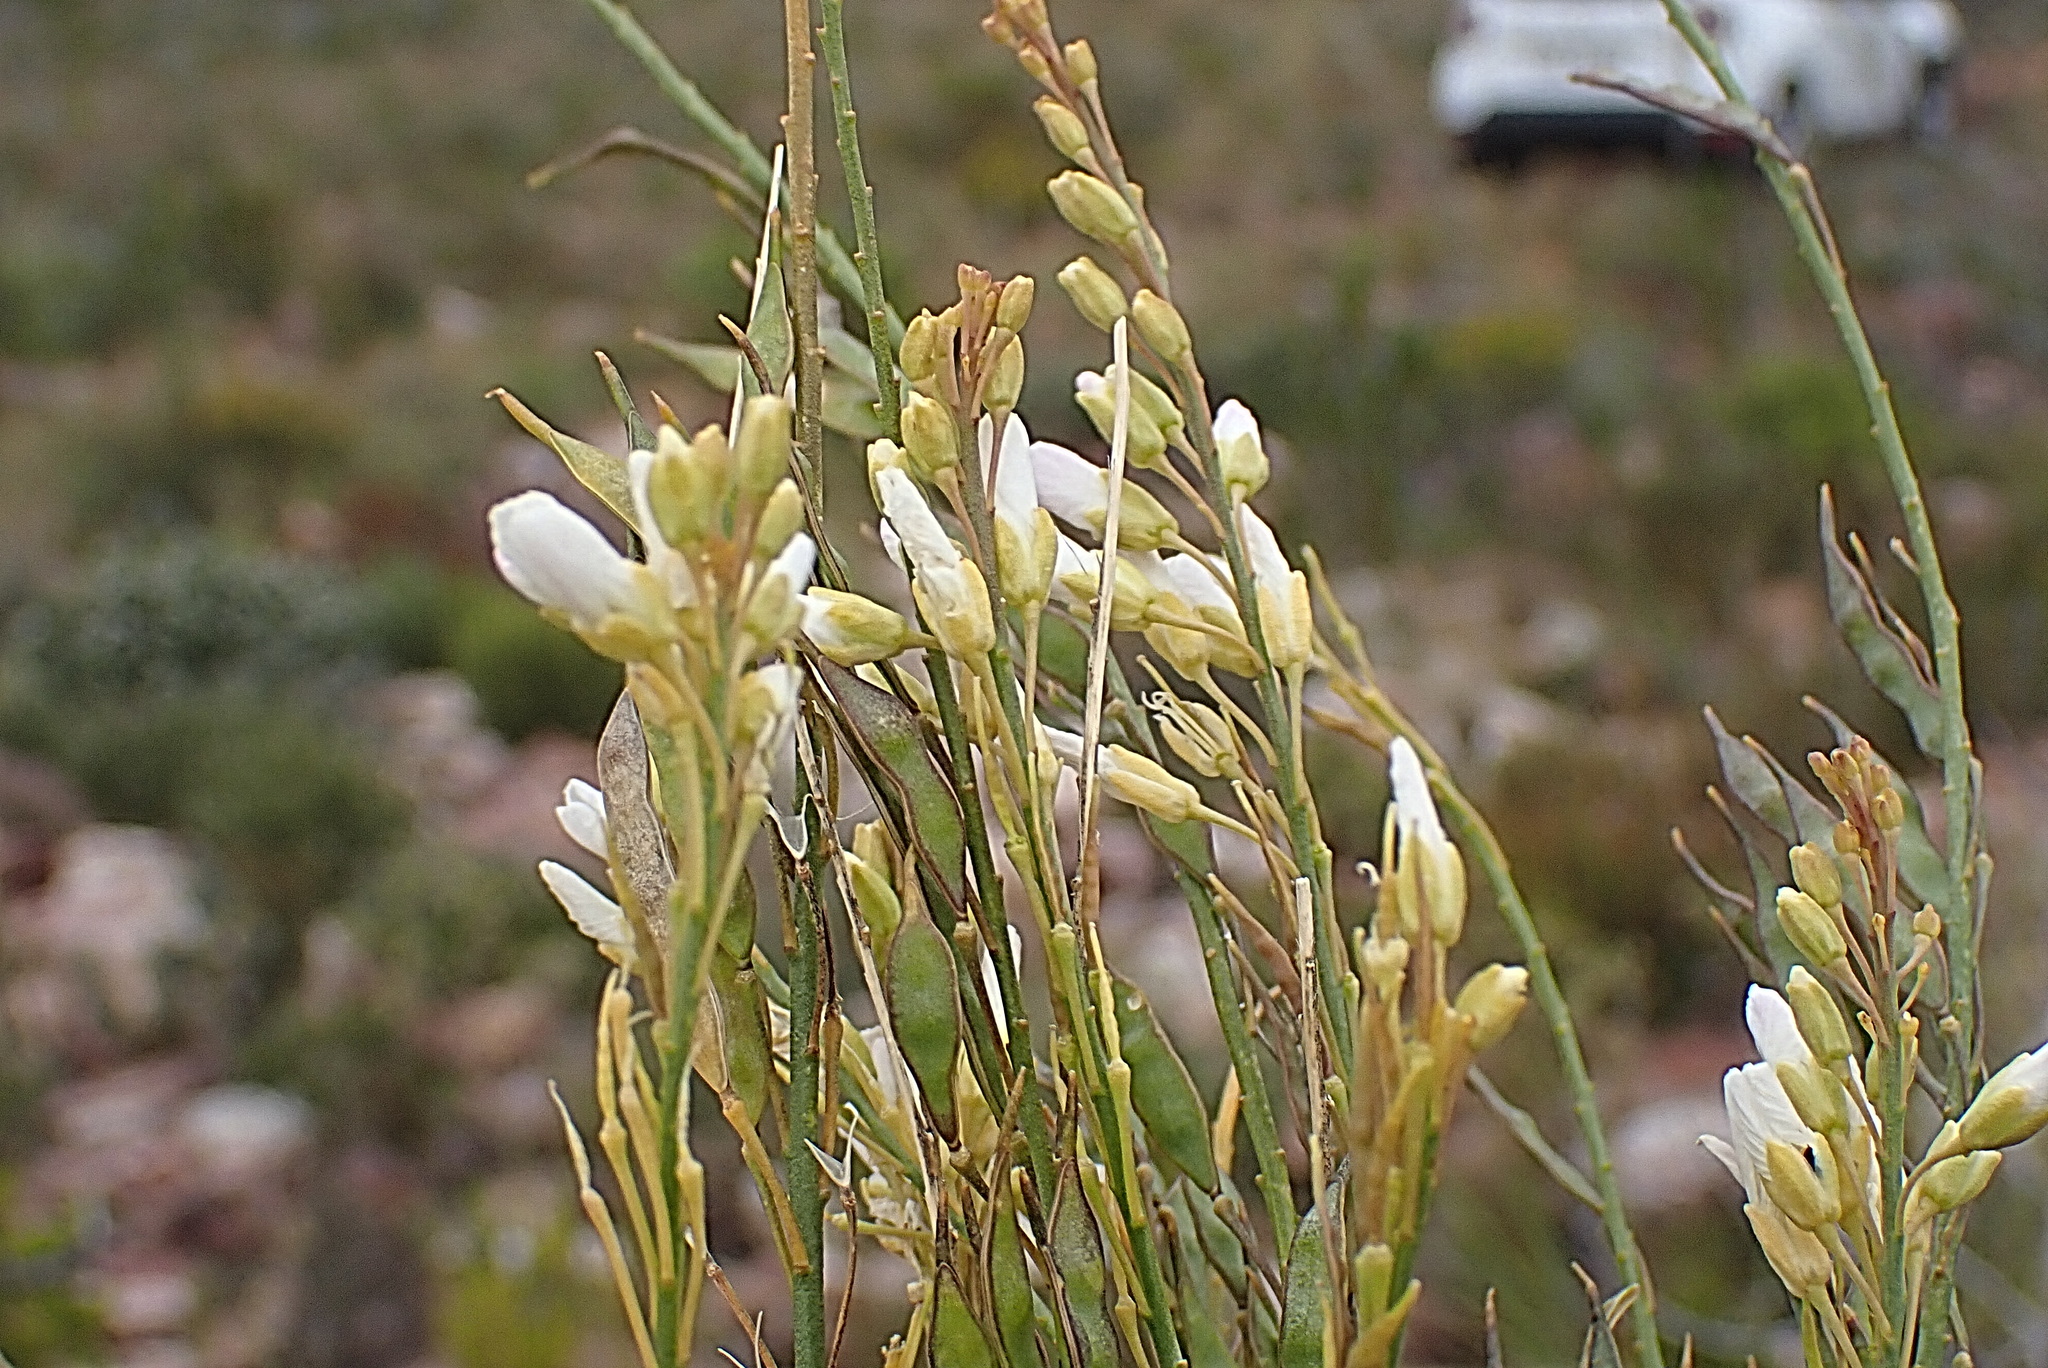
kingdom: Plantae
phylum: Tracheophyta
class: Magnoliopsida
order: Brassicales
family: Brassicaceae
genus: Heliophila
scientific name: Heliophila glauca
